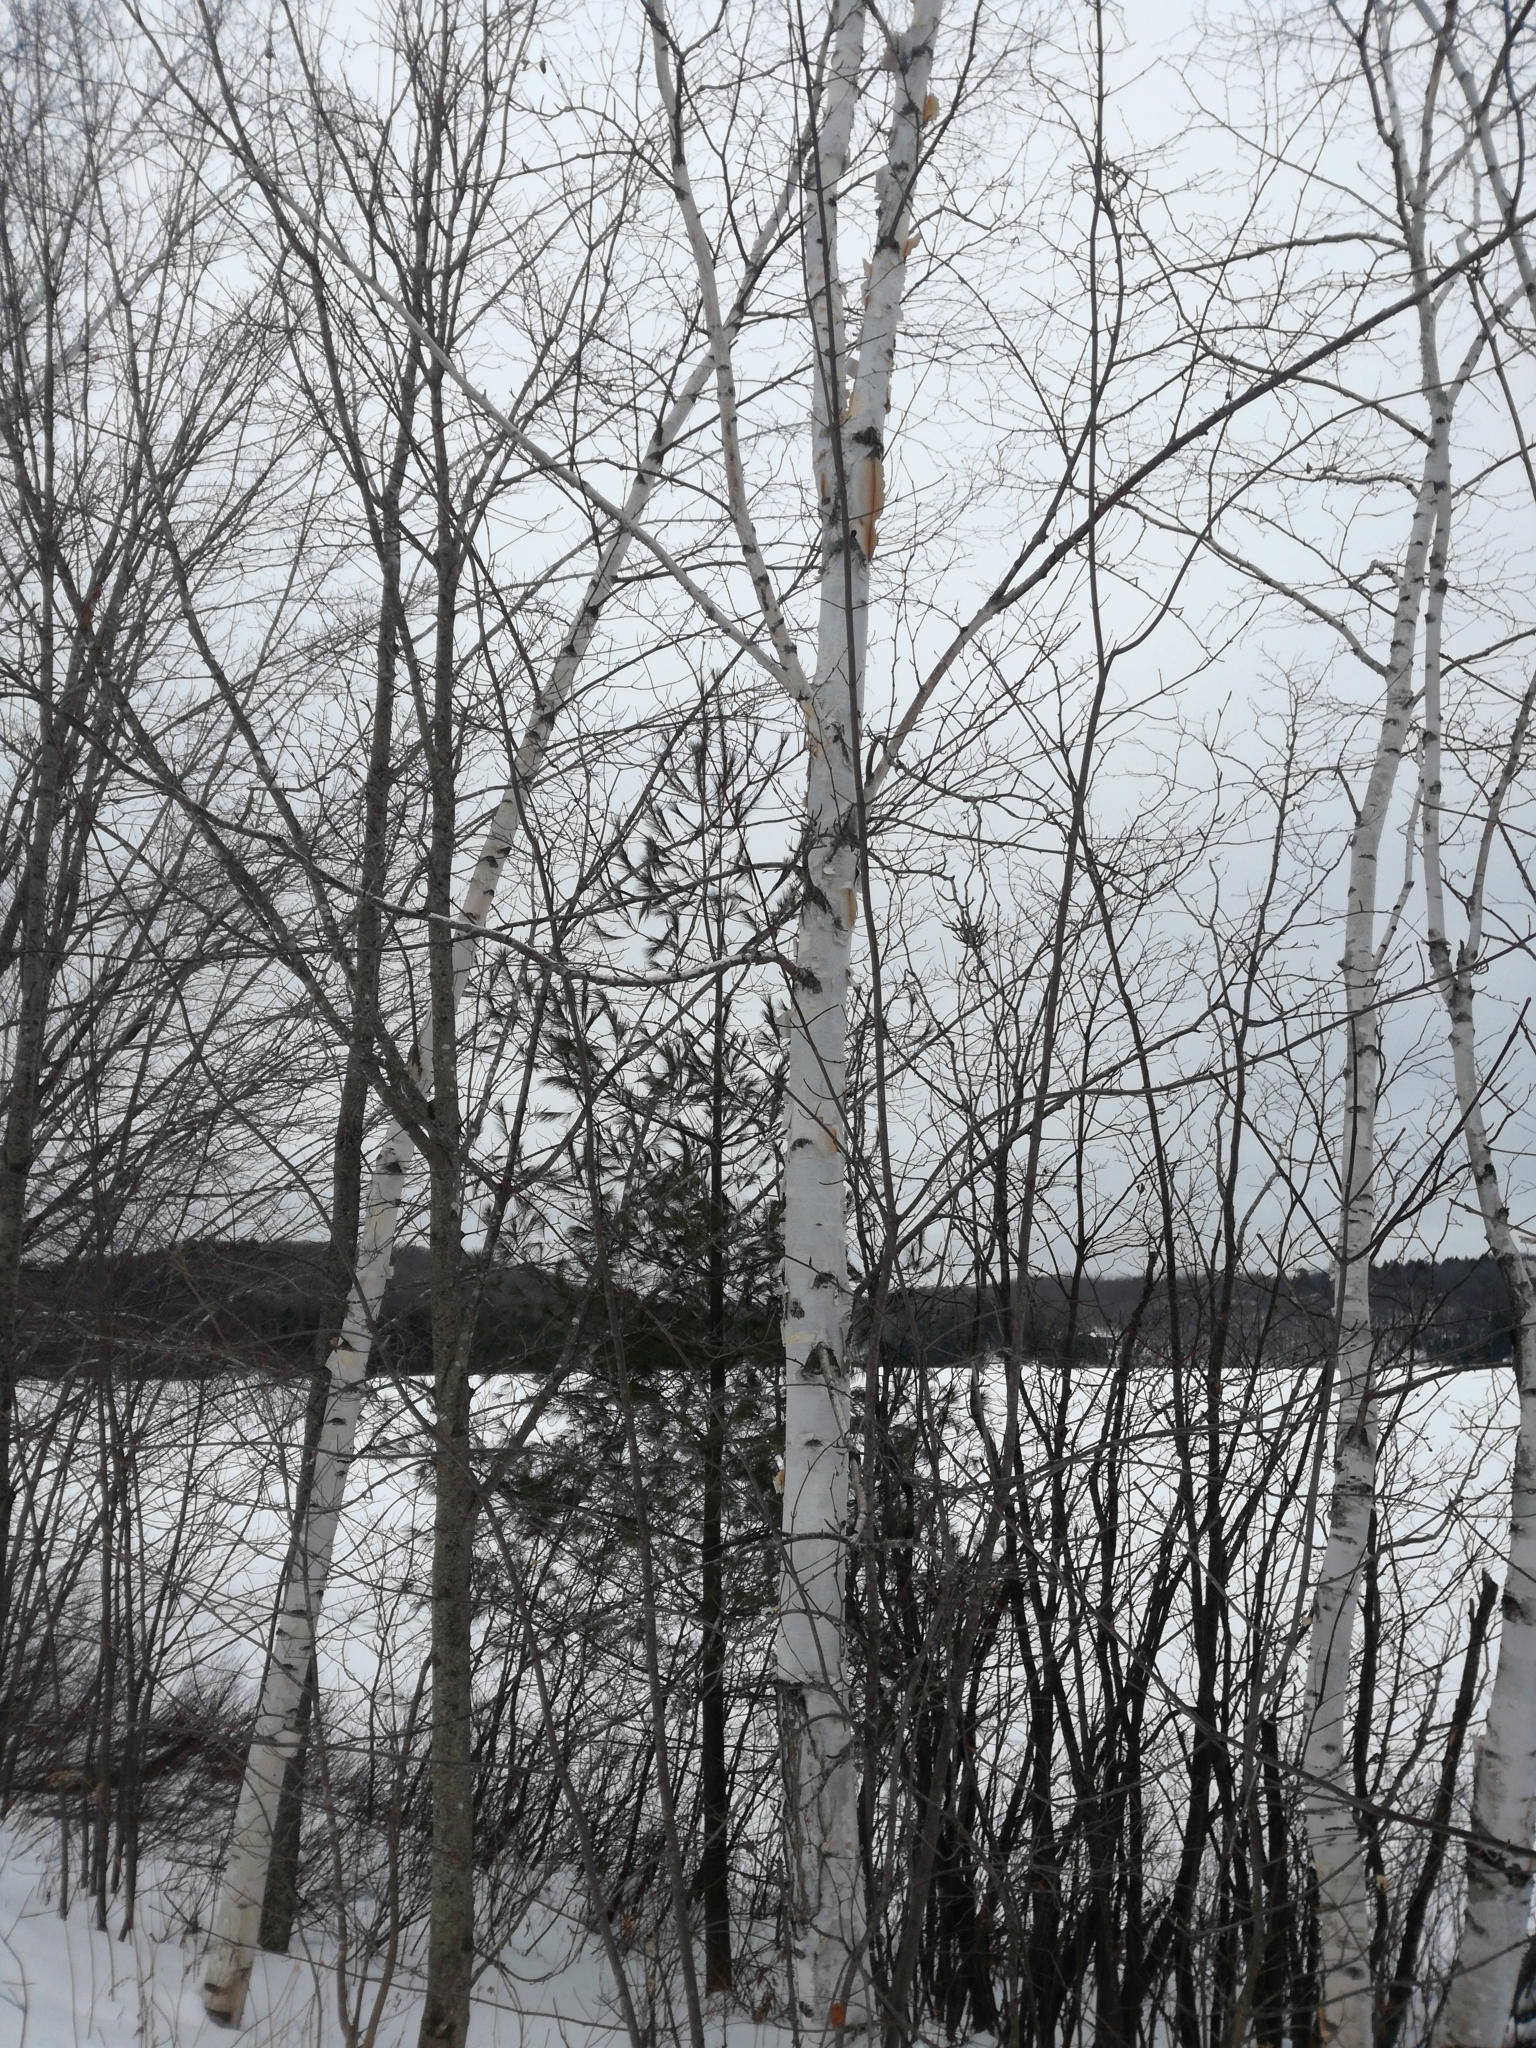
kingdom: Plantae
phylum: Tracheophyta
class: Magnoliopsida
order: Fagales
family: Betulaceae
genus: Betula
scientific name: Betula papyrifera
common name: Paper birch
